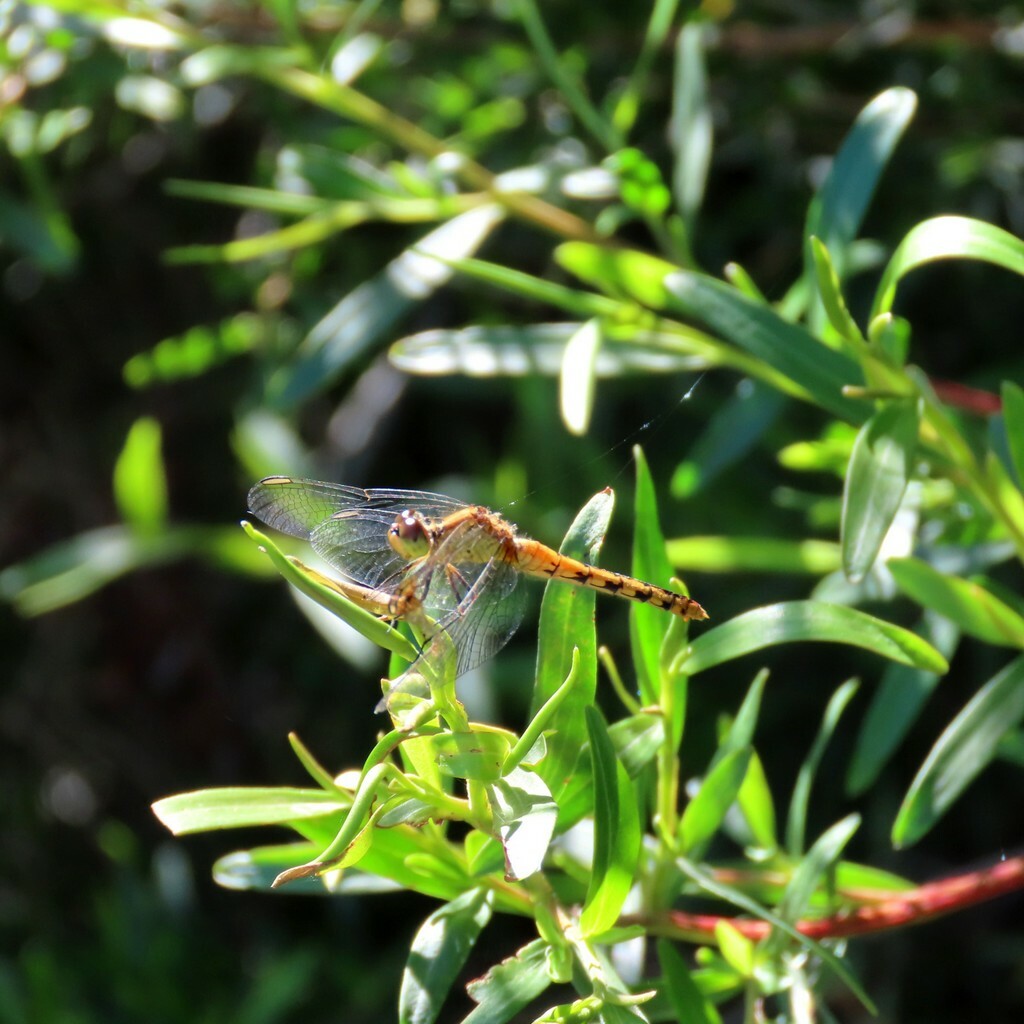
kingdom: Animalia
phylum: Arthropoda
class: Insecta
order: Odonata
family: Libellulidae
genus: Diplacodes
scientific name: Diplacodes melanopsis
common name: Black-faced percher
